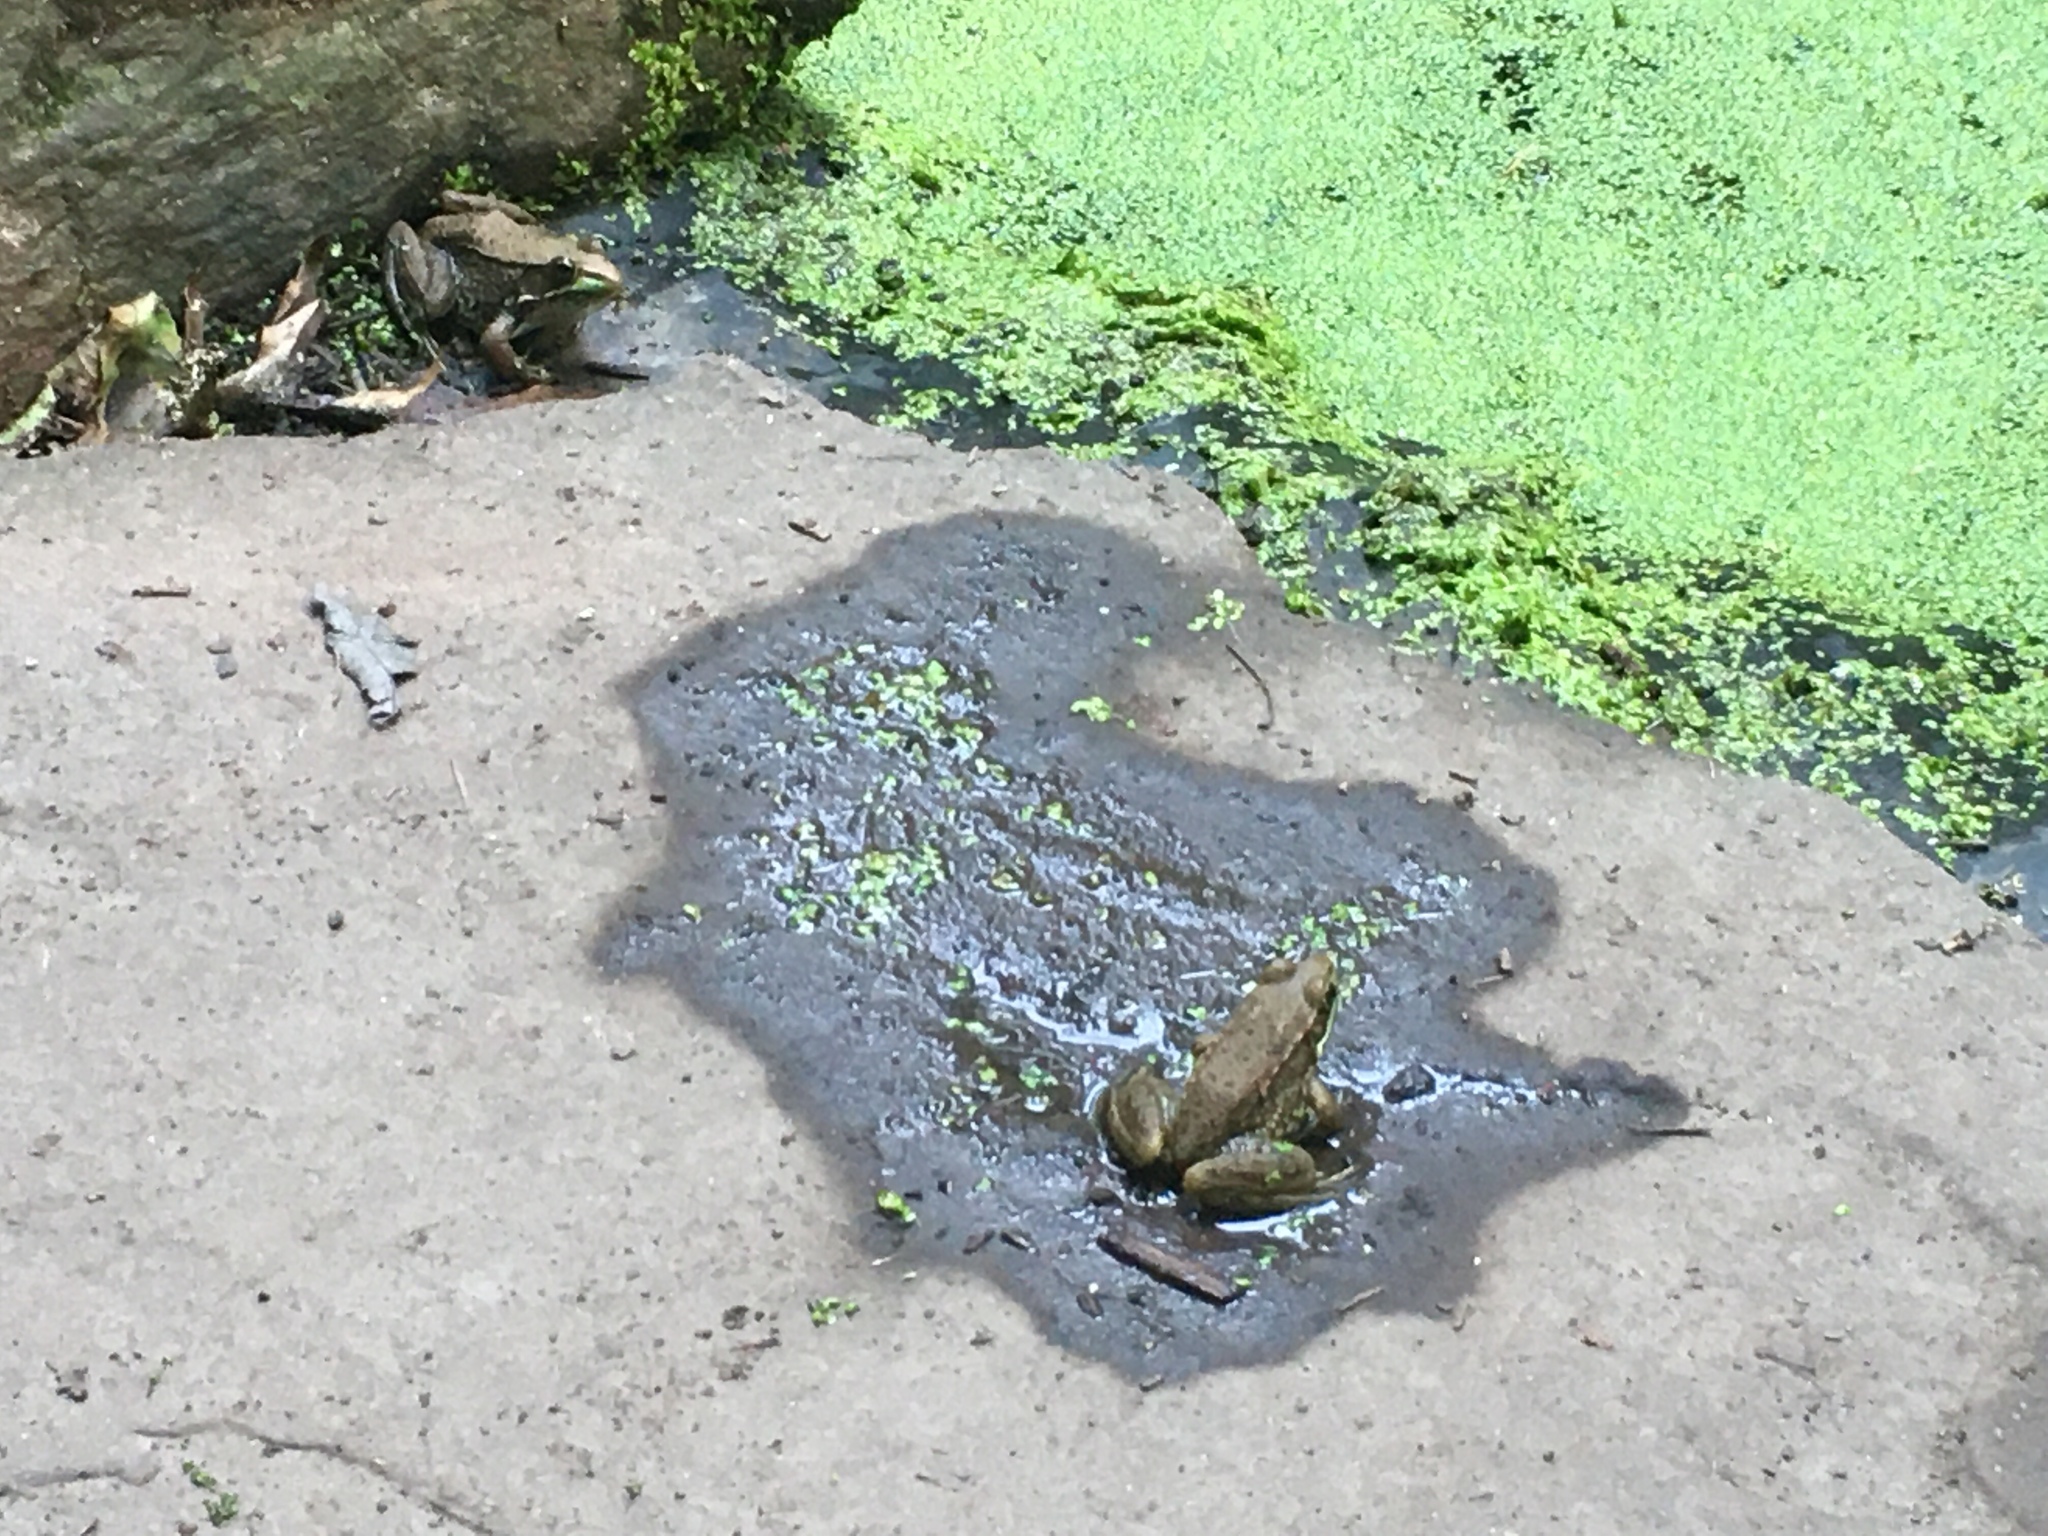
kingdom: Animalia
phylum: Chordata
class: Amphibia
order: Anura
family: Ranidae
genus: Lithobates
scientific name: Lithobates clamitans
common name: Green frog
